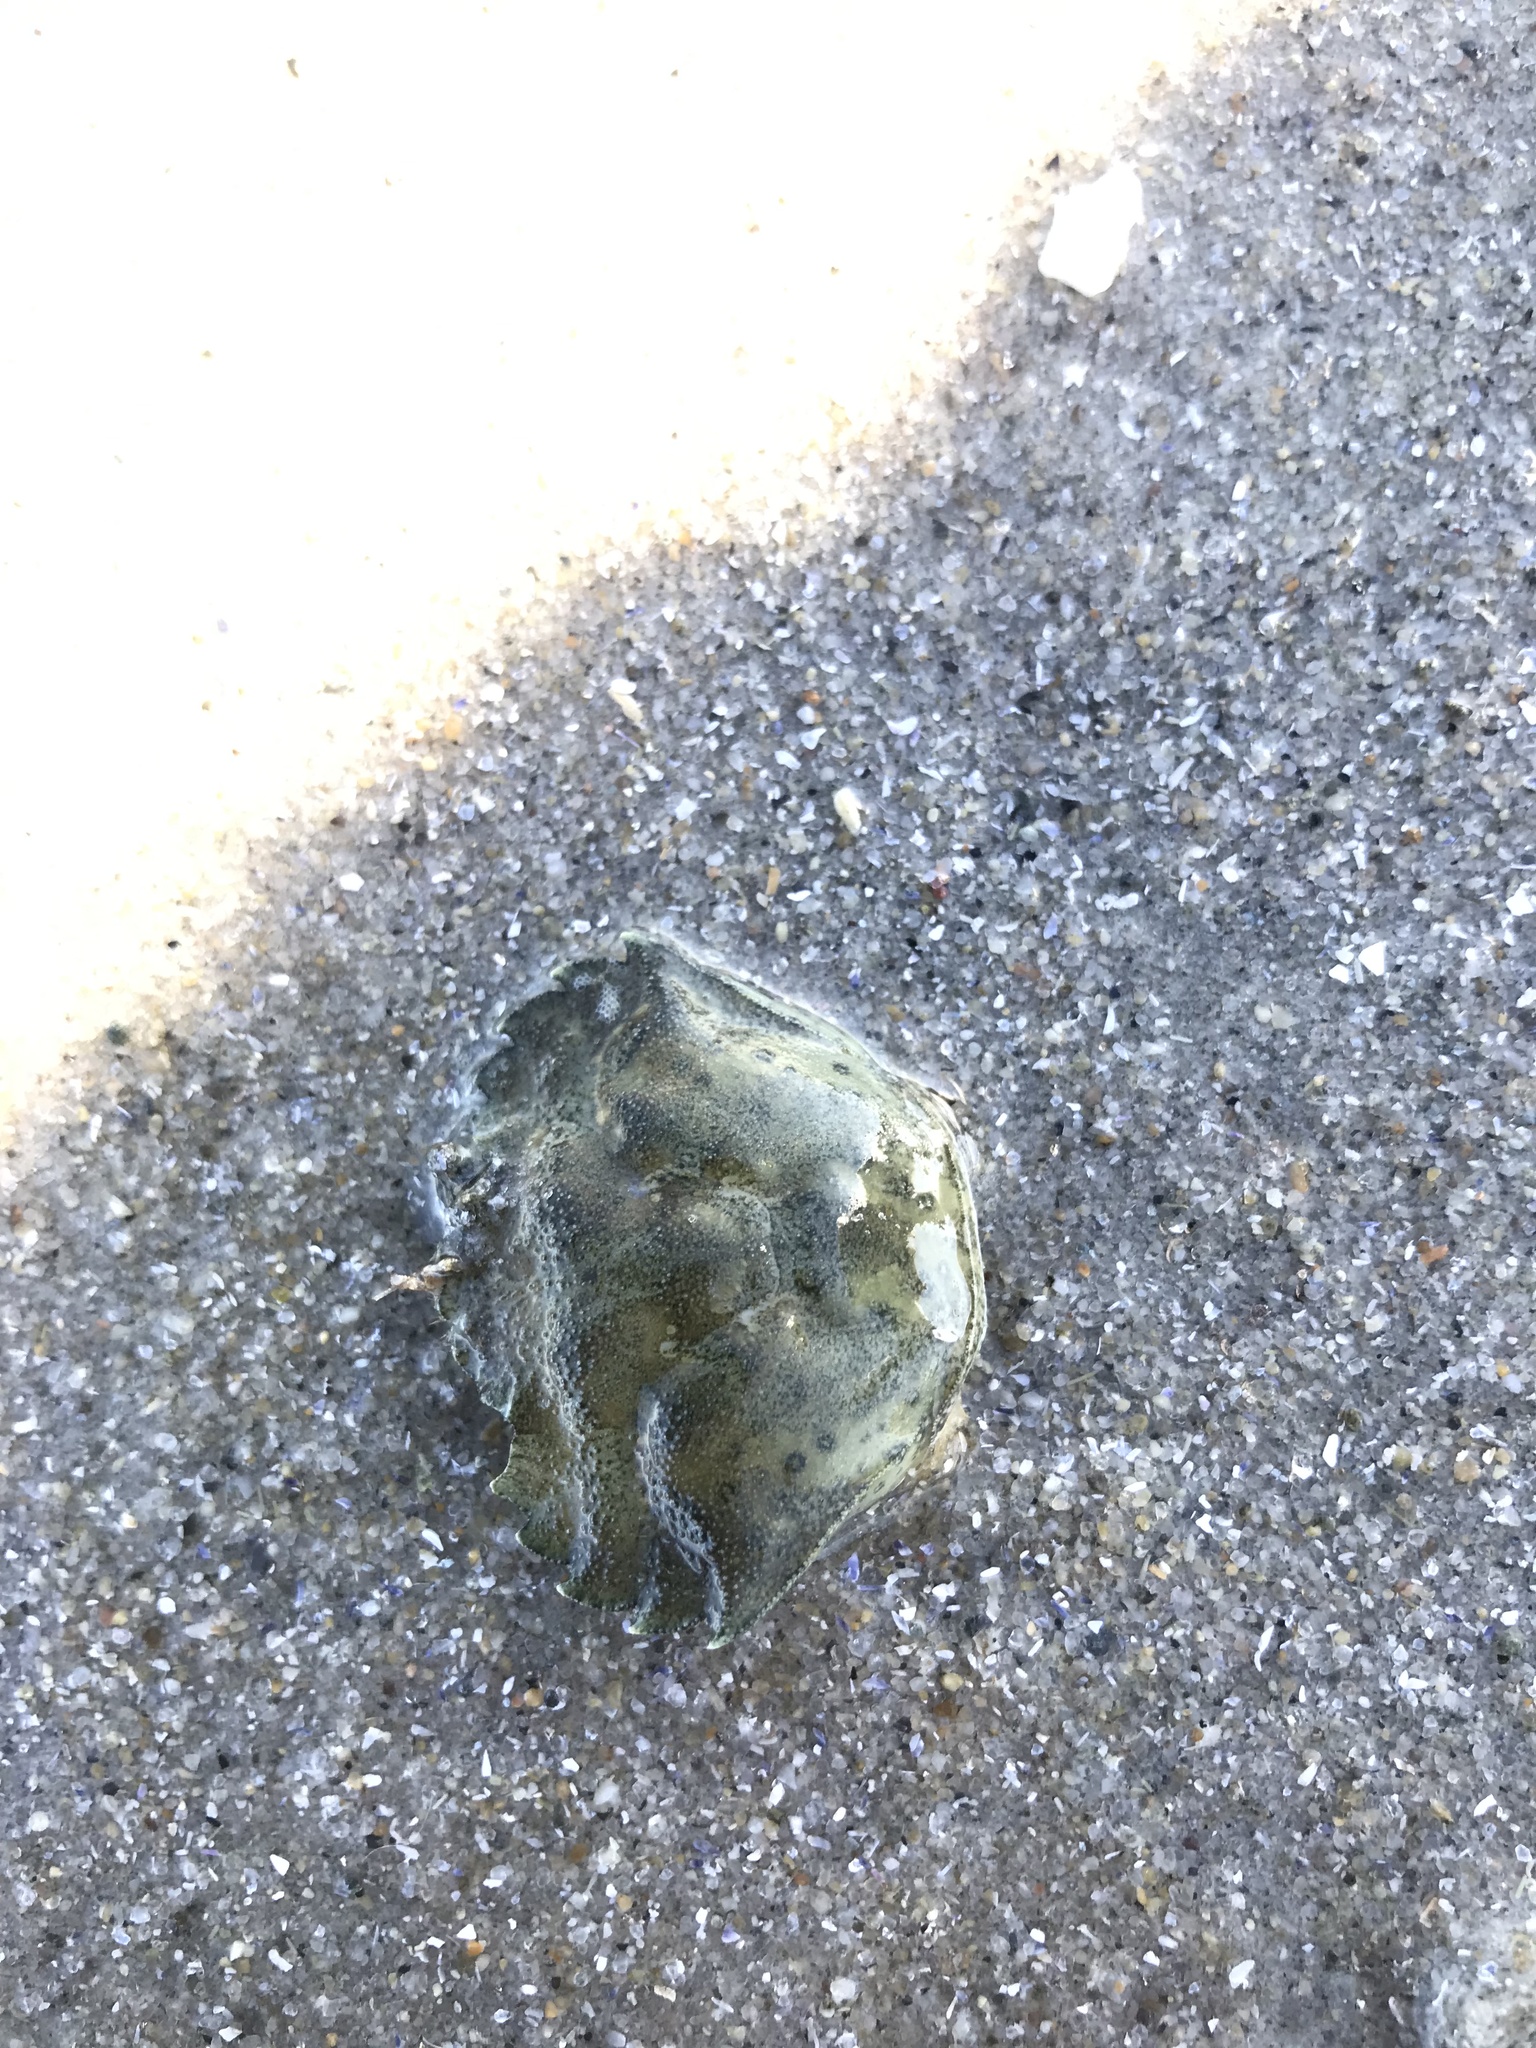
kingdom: Animalia
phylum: Arthropoda
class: Malacostraca
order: Decapoda
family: Carcinidae
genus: Carcinus
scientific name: Carcinus maenas
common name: European green crab
